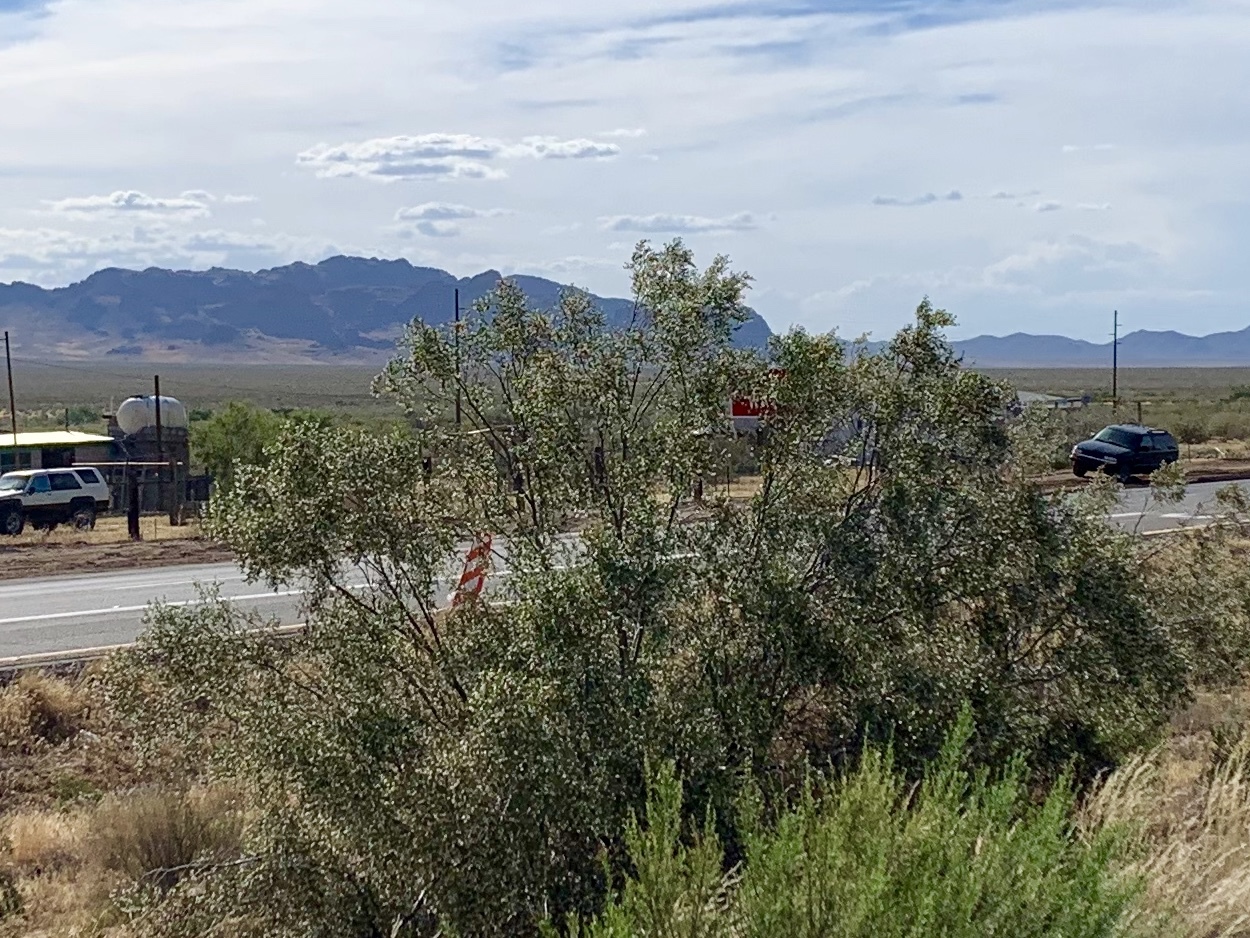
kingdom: Plantae
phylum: Tracheophyta
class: Magnoliopsida
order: Zygophyllales
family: Zygophyllaceae
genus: Larrea
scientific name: Larrea tridentata
